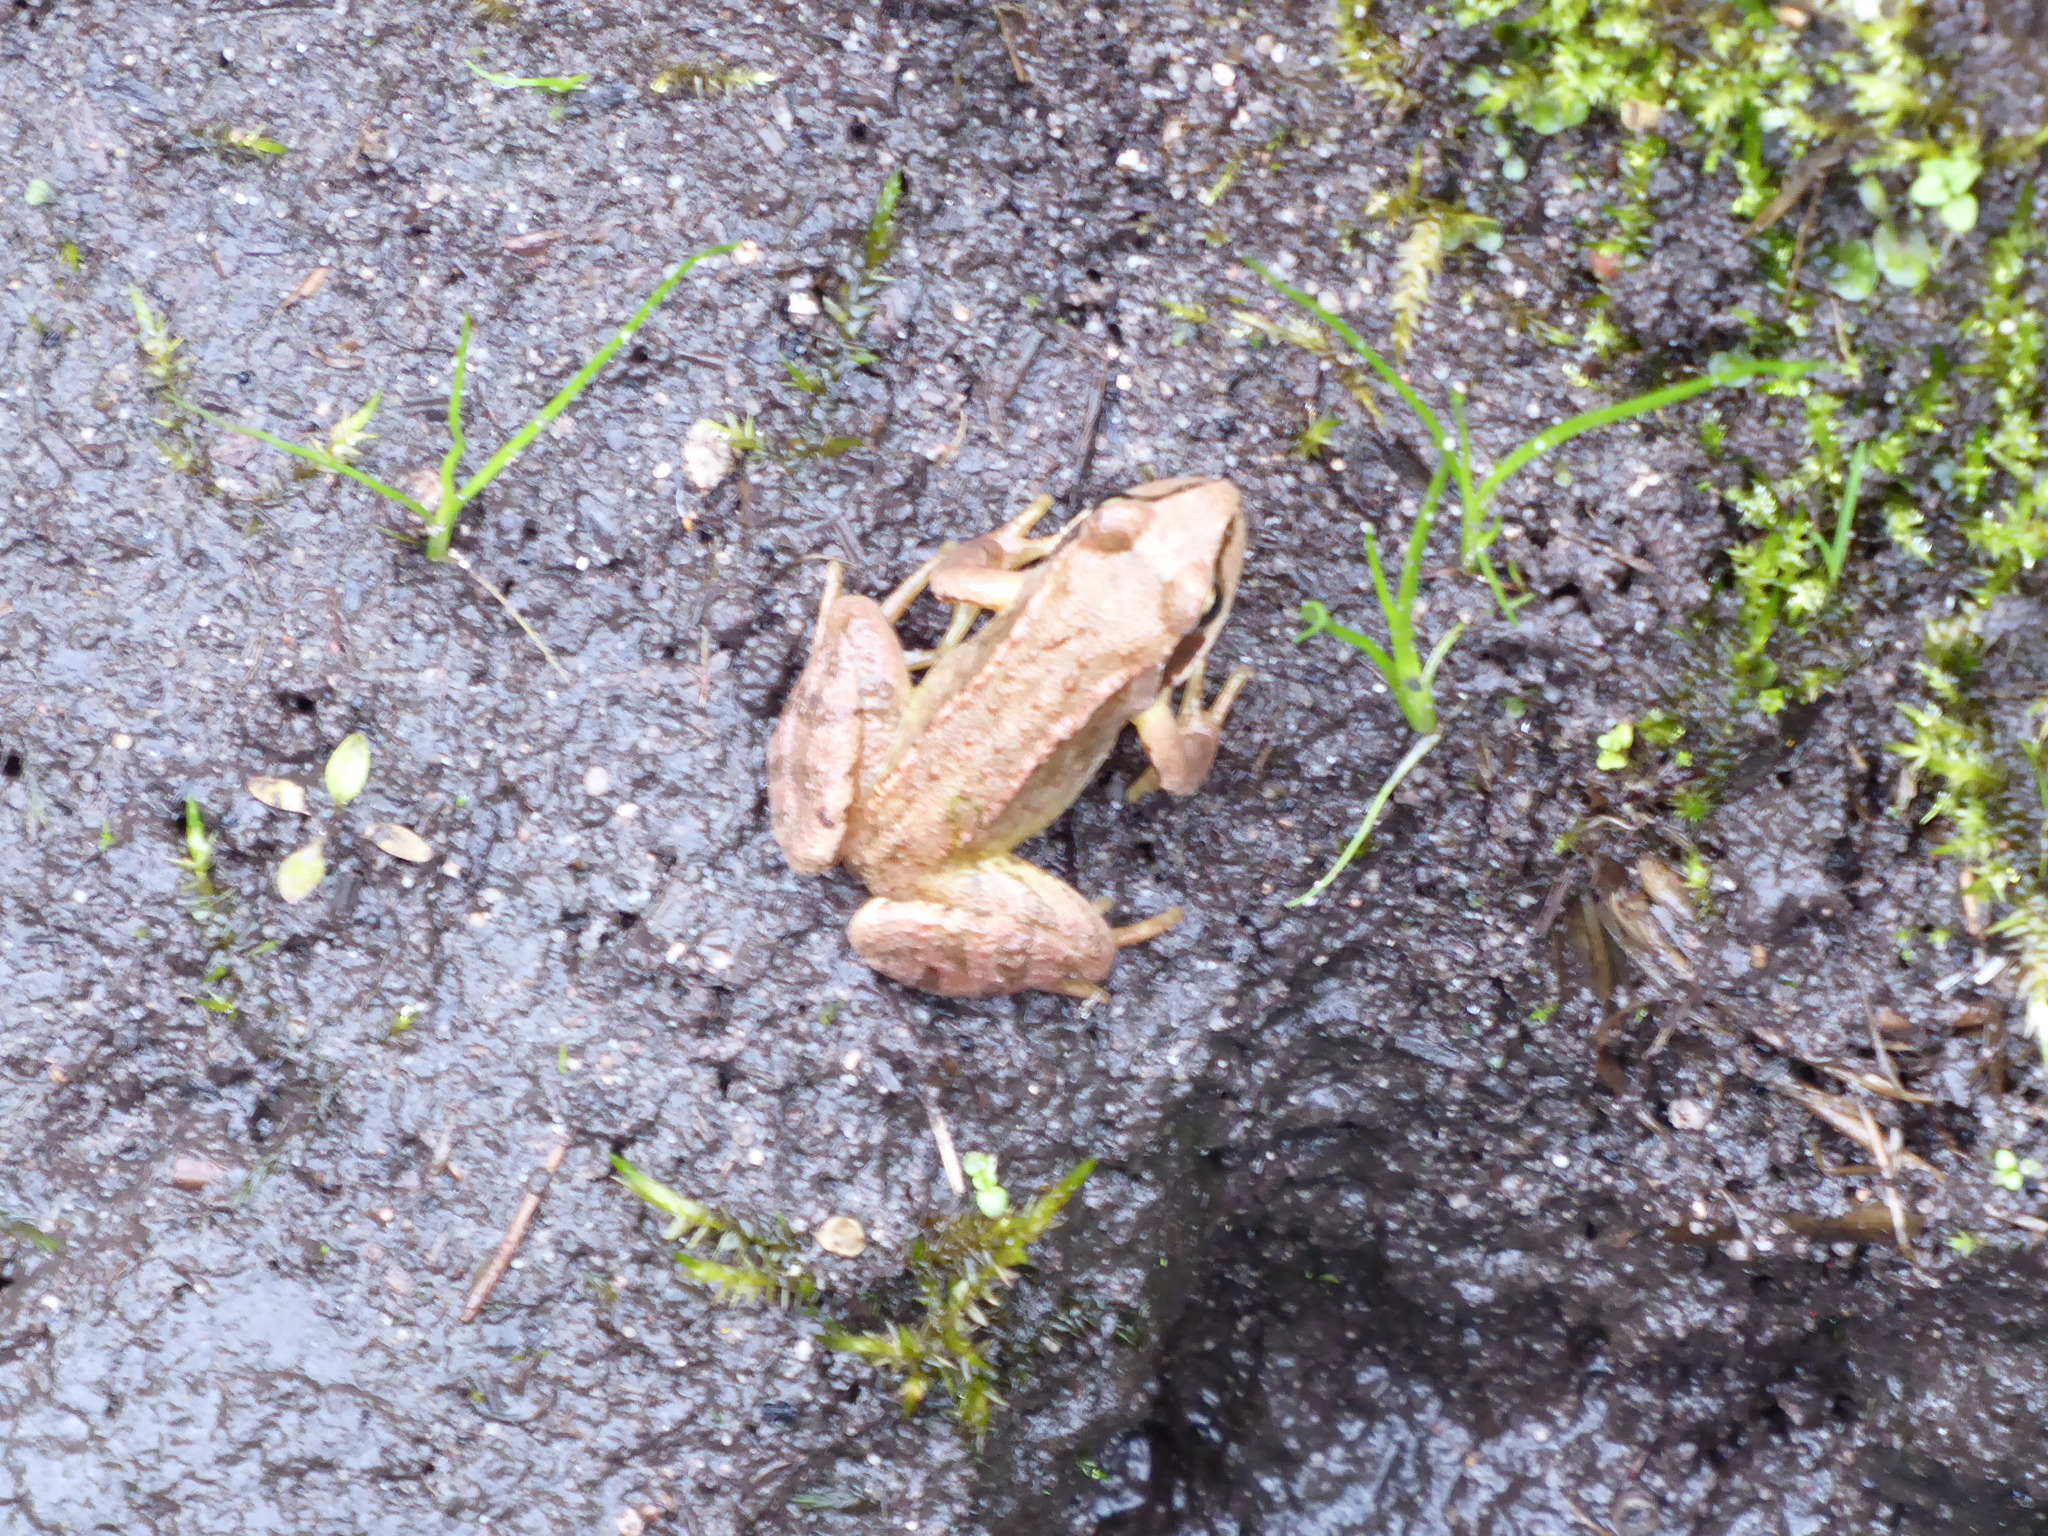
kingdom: Animalia
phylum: Chordata
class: Amphibia
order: Anura
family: Ranidae
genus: Rana
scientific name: Rana temporaria
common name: Common frog
